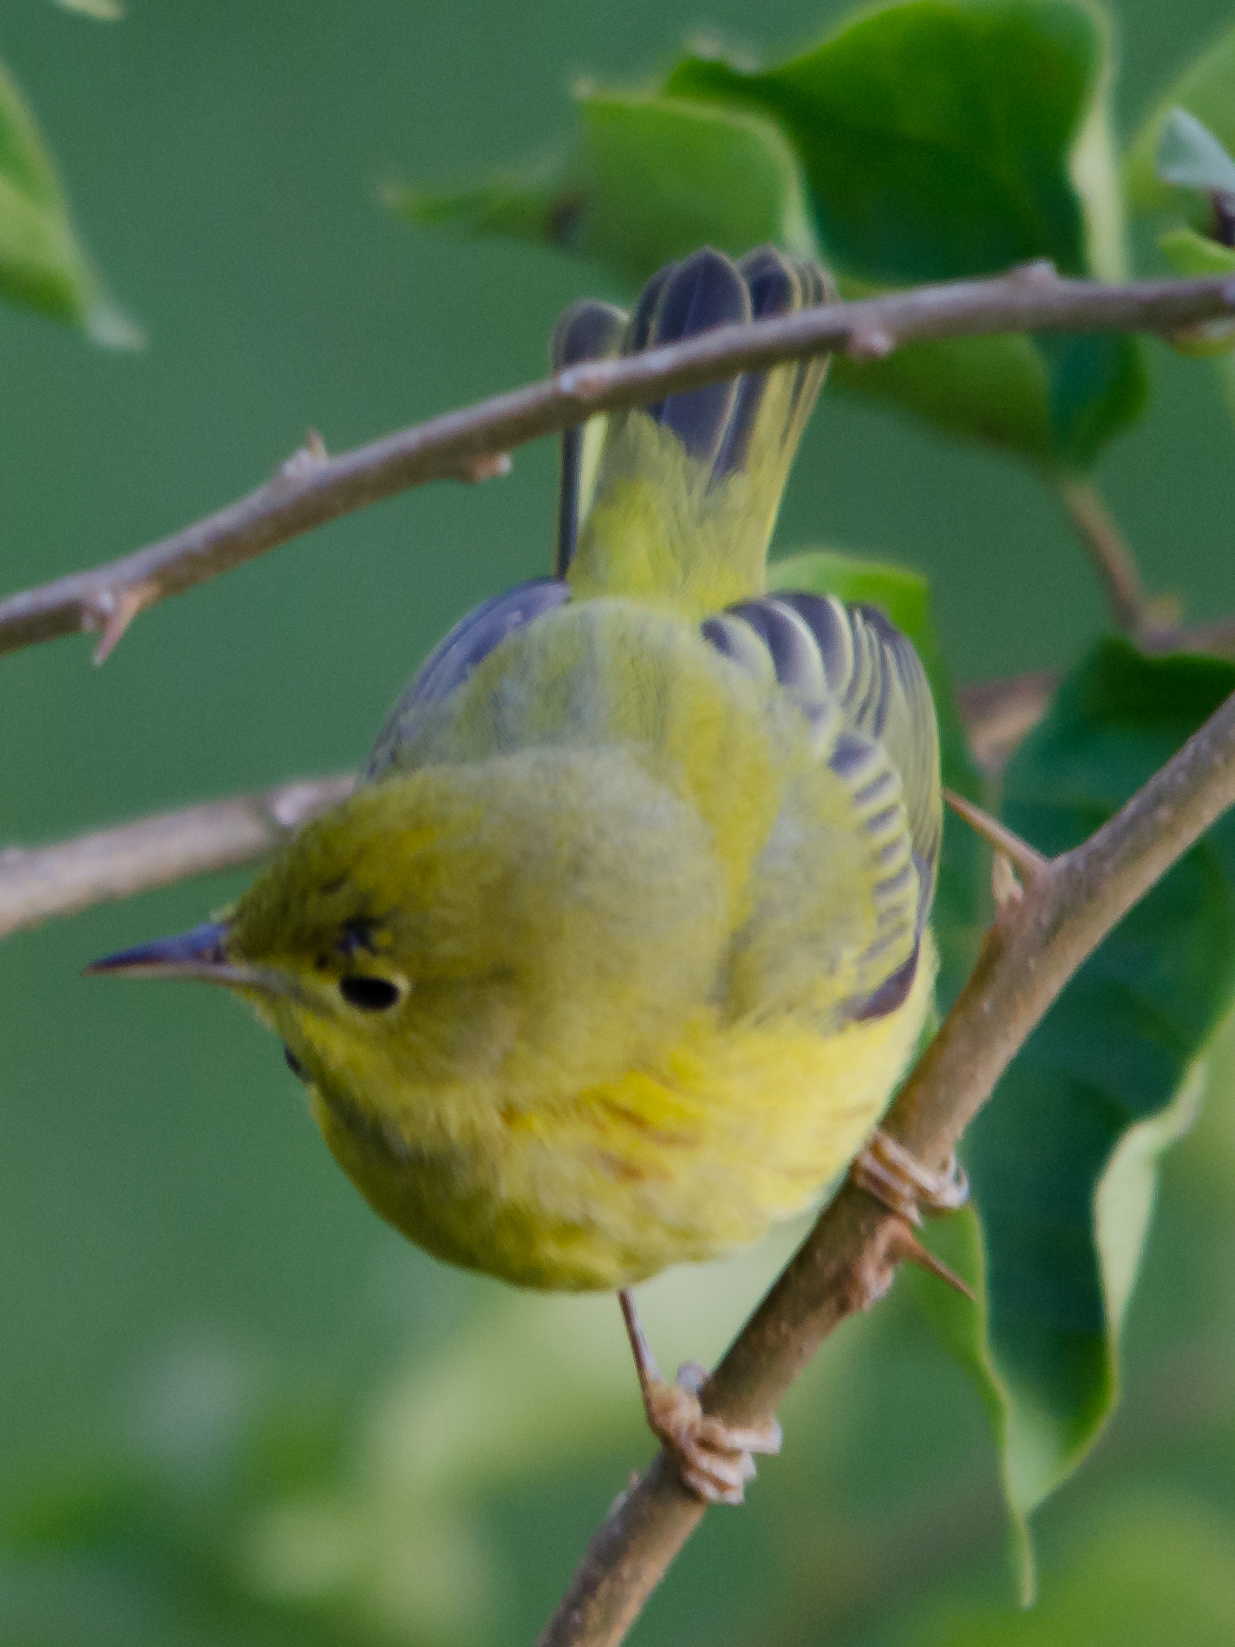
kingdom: Animalia
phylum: Chordata
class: Aves
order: Passeriformes
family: Parulidae
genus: Setophaga
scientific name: Setophaga petechia
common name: Yellow warbler
